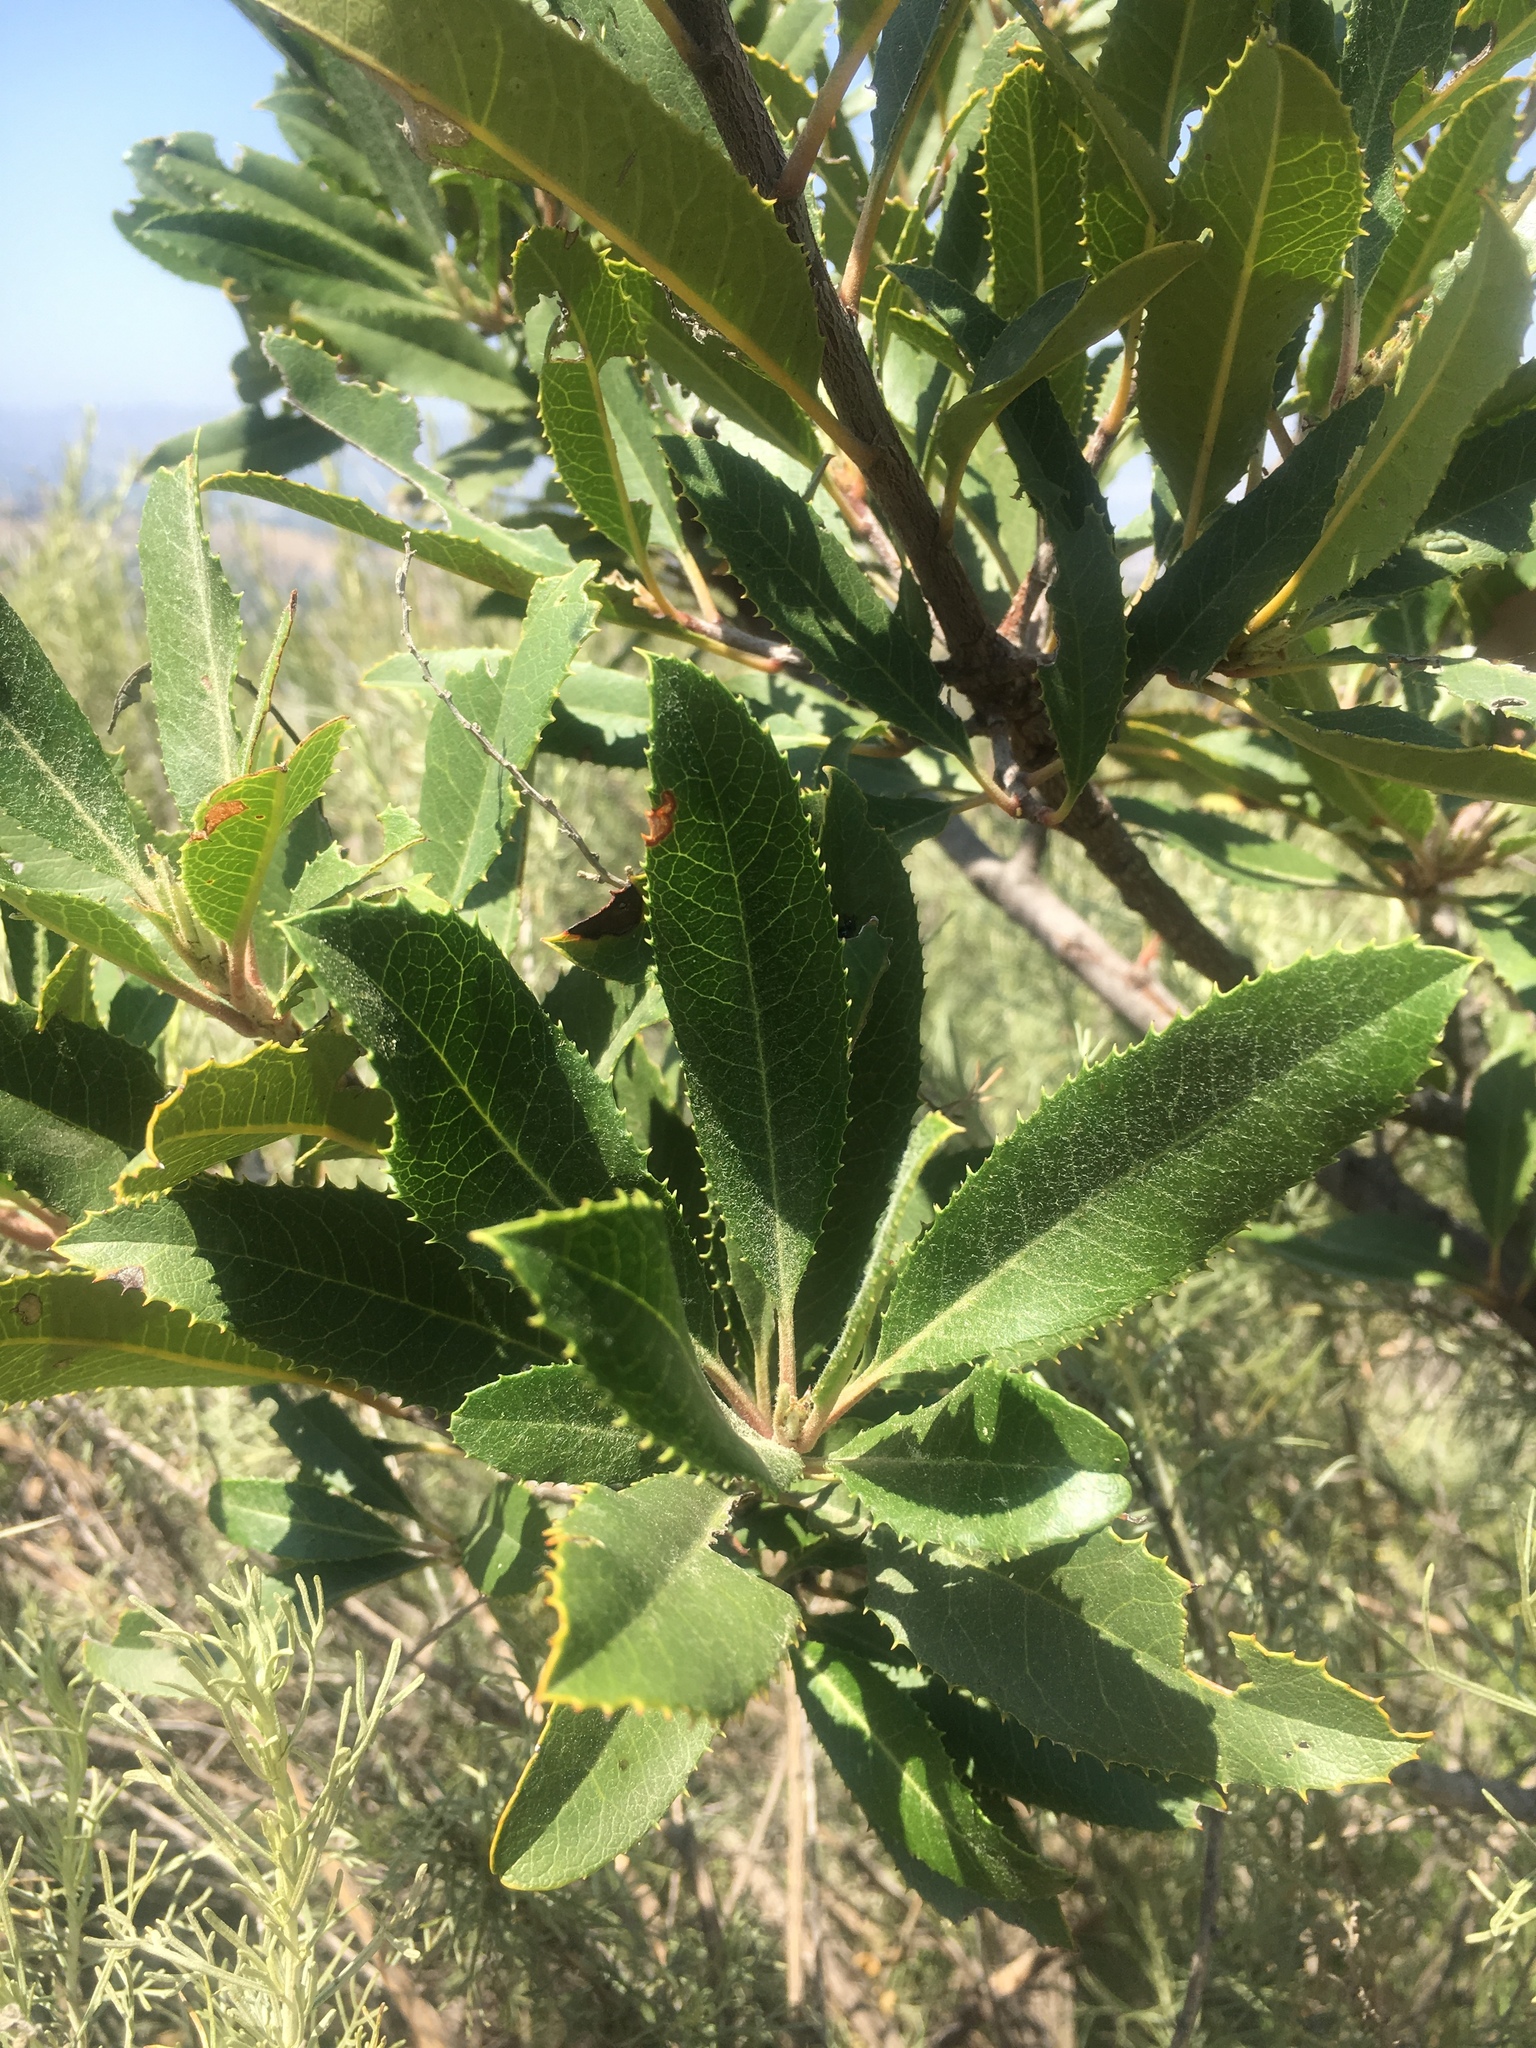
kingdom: Plantae
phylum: Tracheophyta
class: Magnoliopsida
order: Rosales
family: Rosaceae
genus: Heteromeles
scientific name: Heteromeles arbutifolia
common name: California-holly
